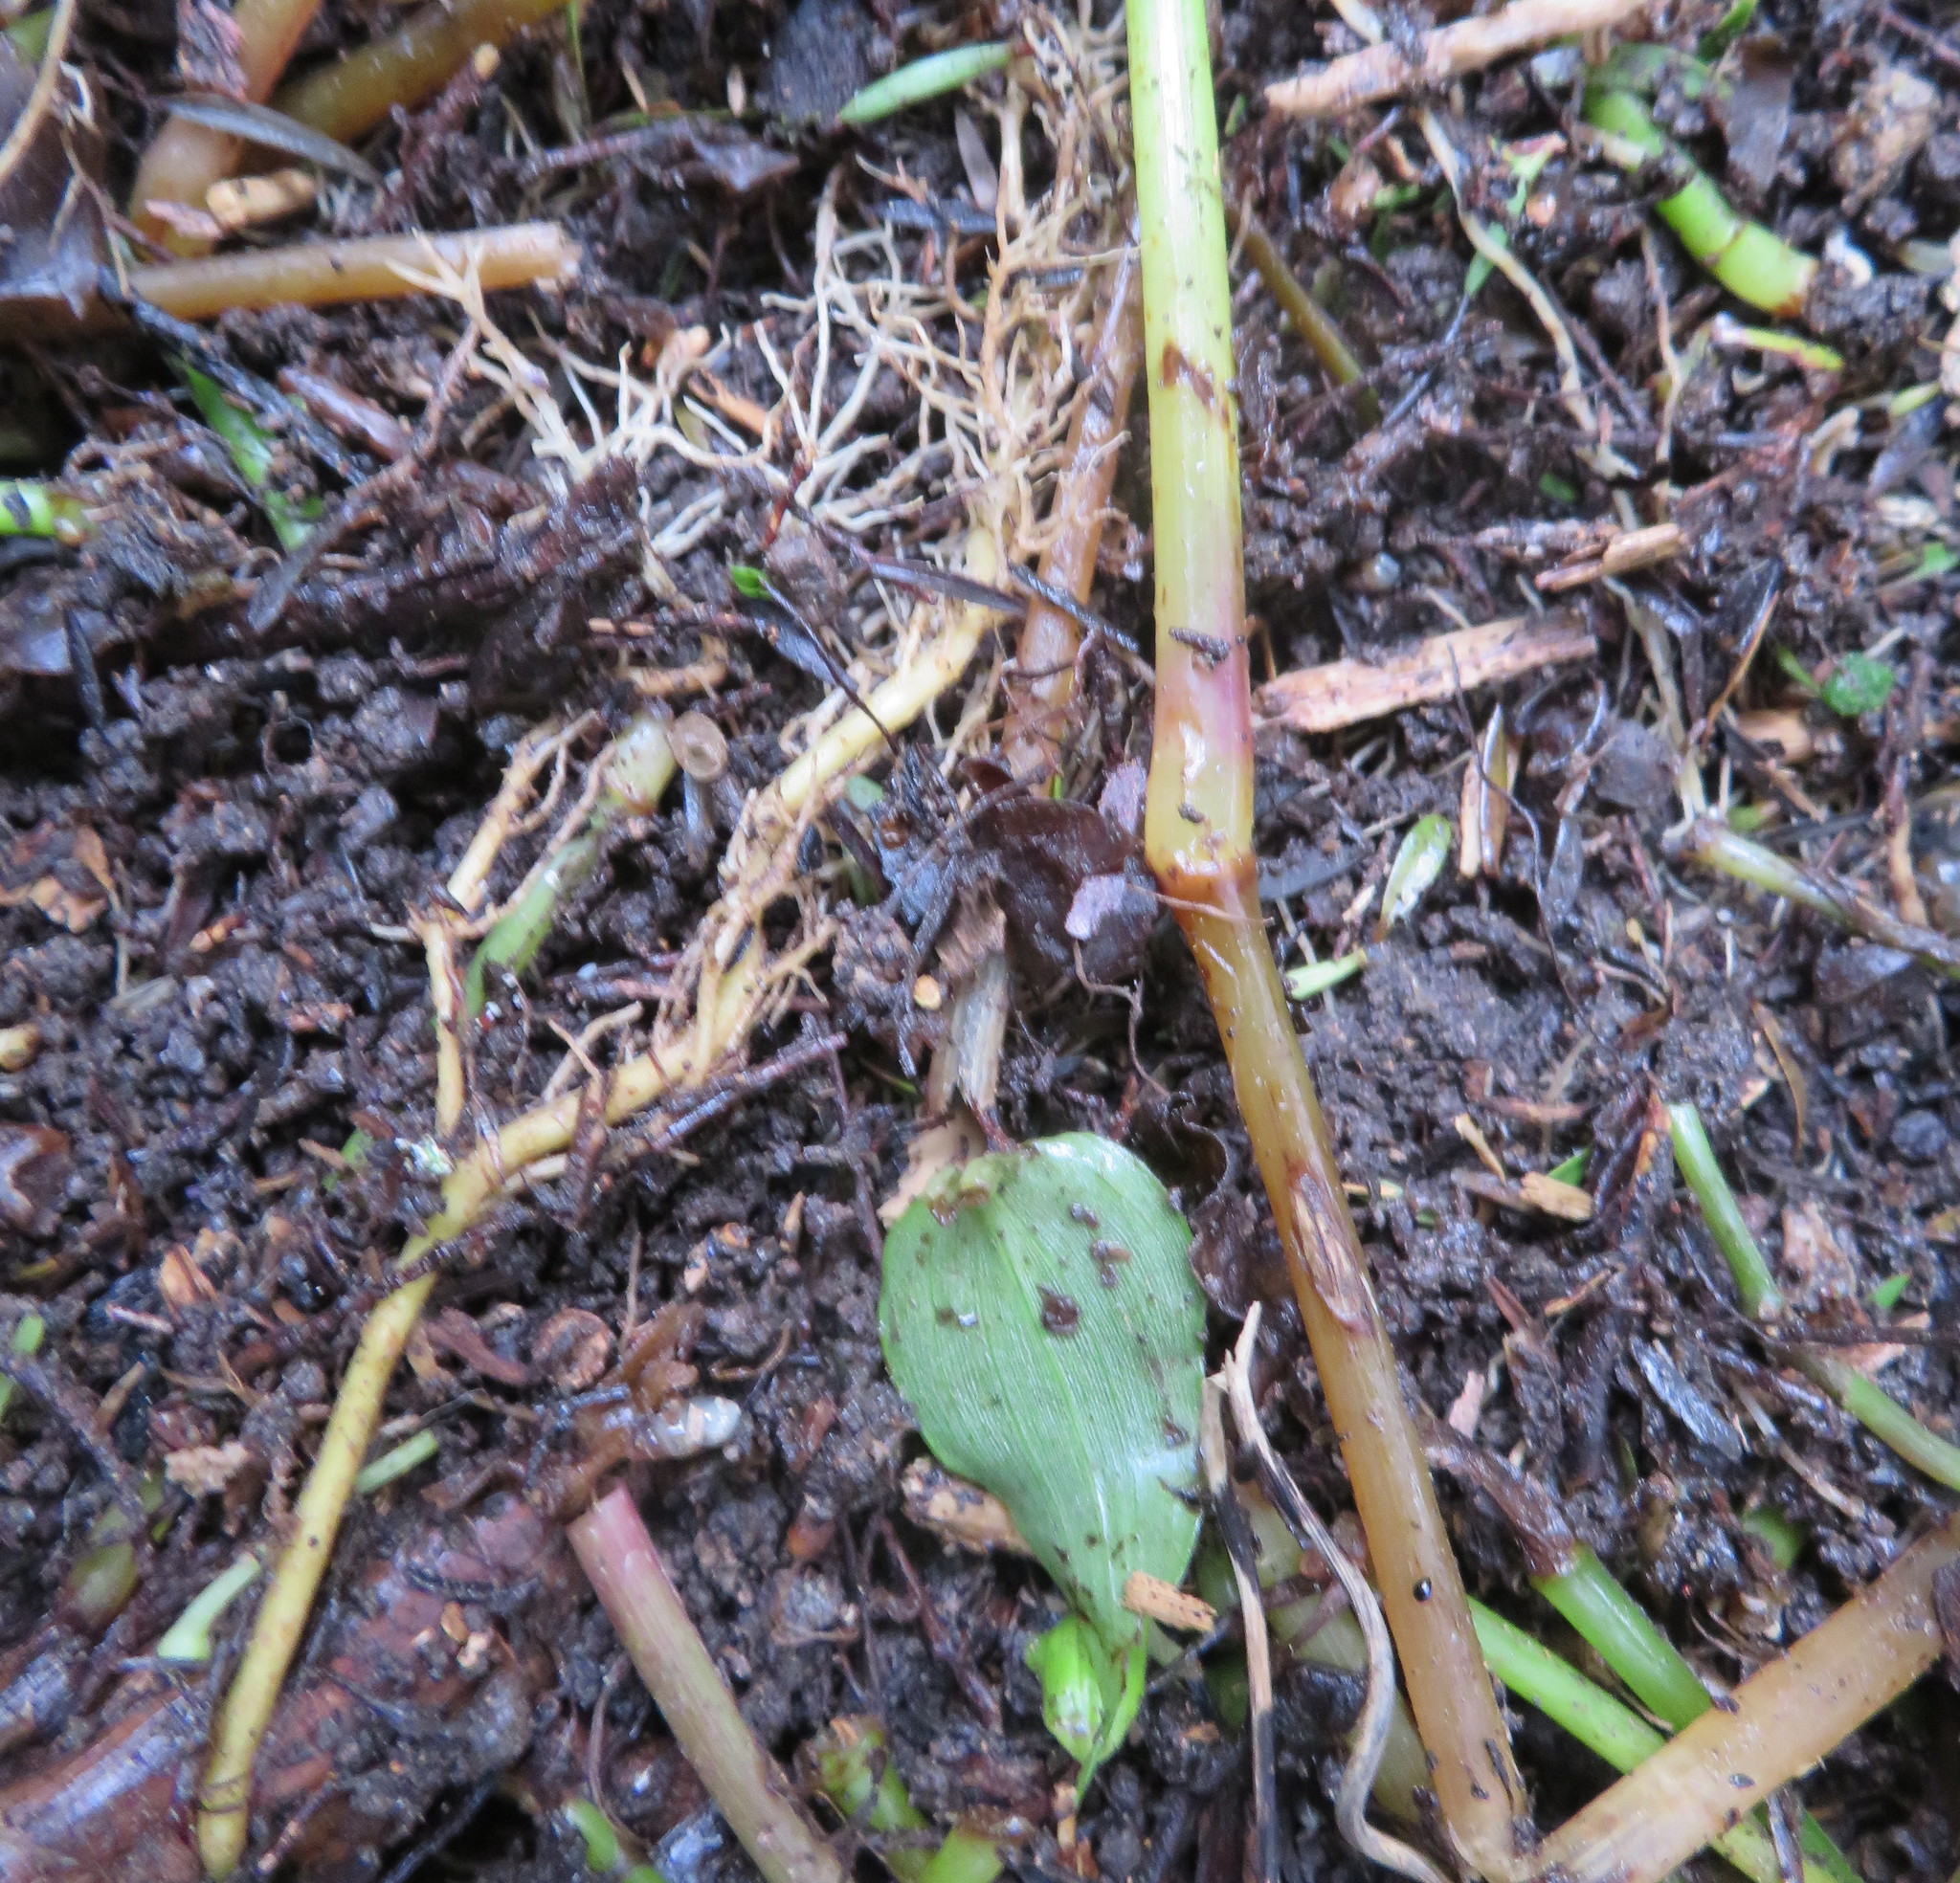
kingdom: Plantae
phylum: Tracheophyta
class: Liliopsida
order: Commelinales
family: Commelinaceae
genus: Tradescantia
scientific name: Tradescantia fluminensis
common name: Wandering-jew
